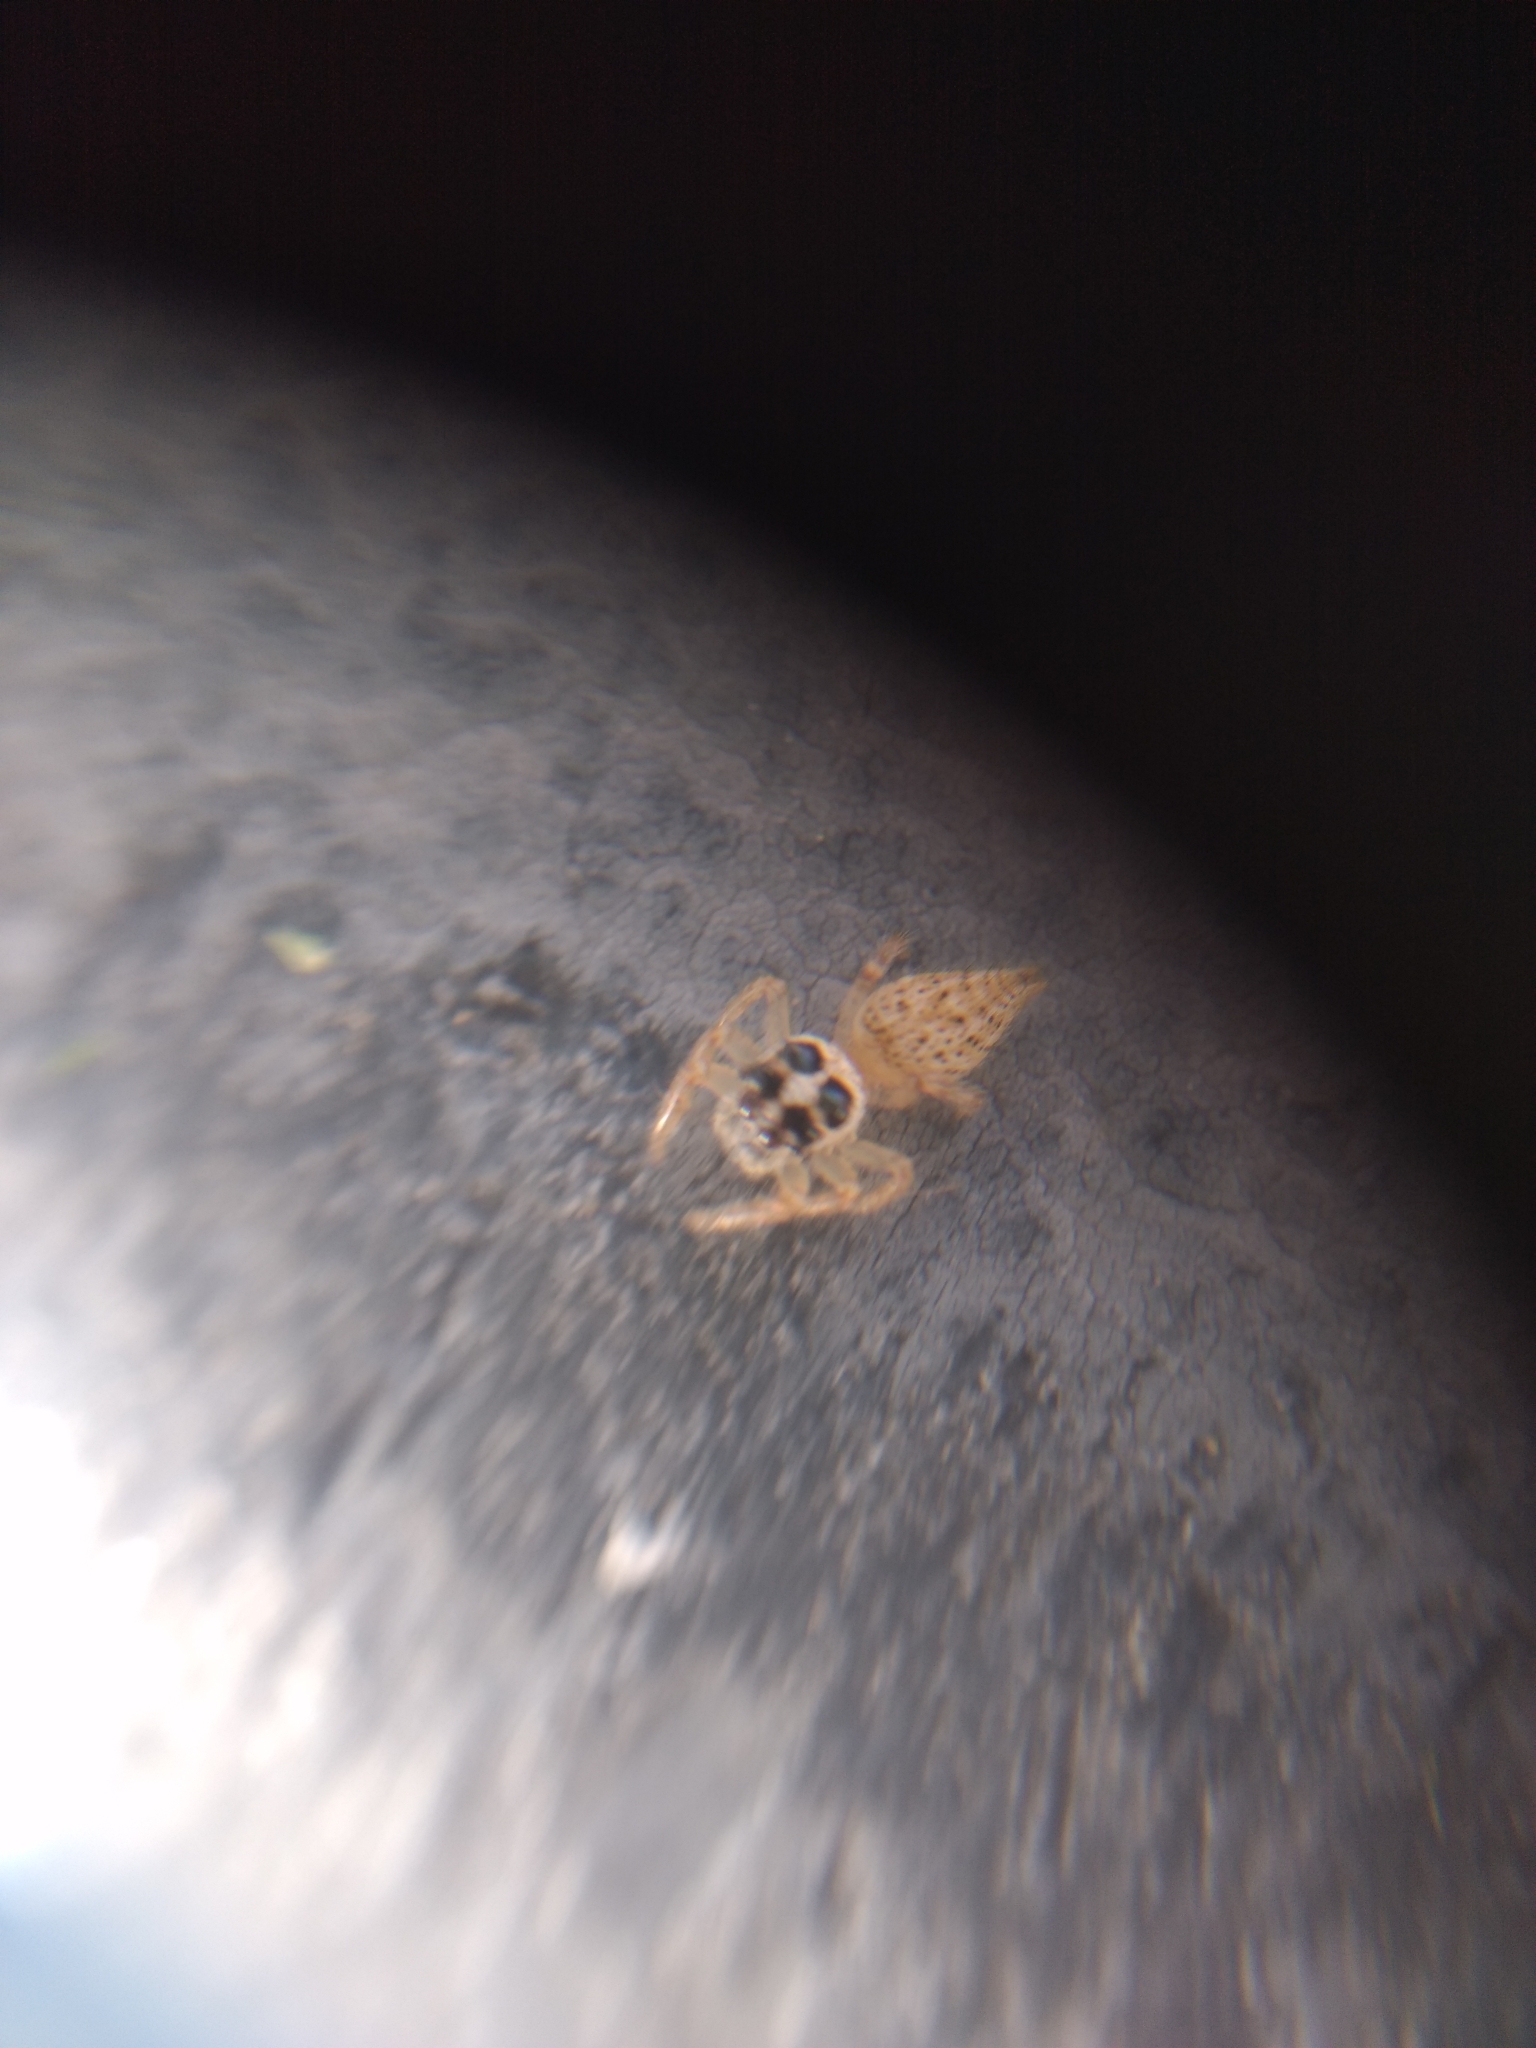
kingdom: Animalia
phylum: Arthropoda
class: Arachnida
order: Araneae
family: Salticidae
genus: Colonus
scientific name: Colonus hesperus
